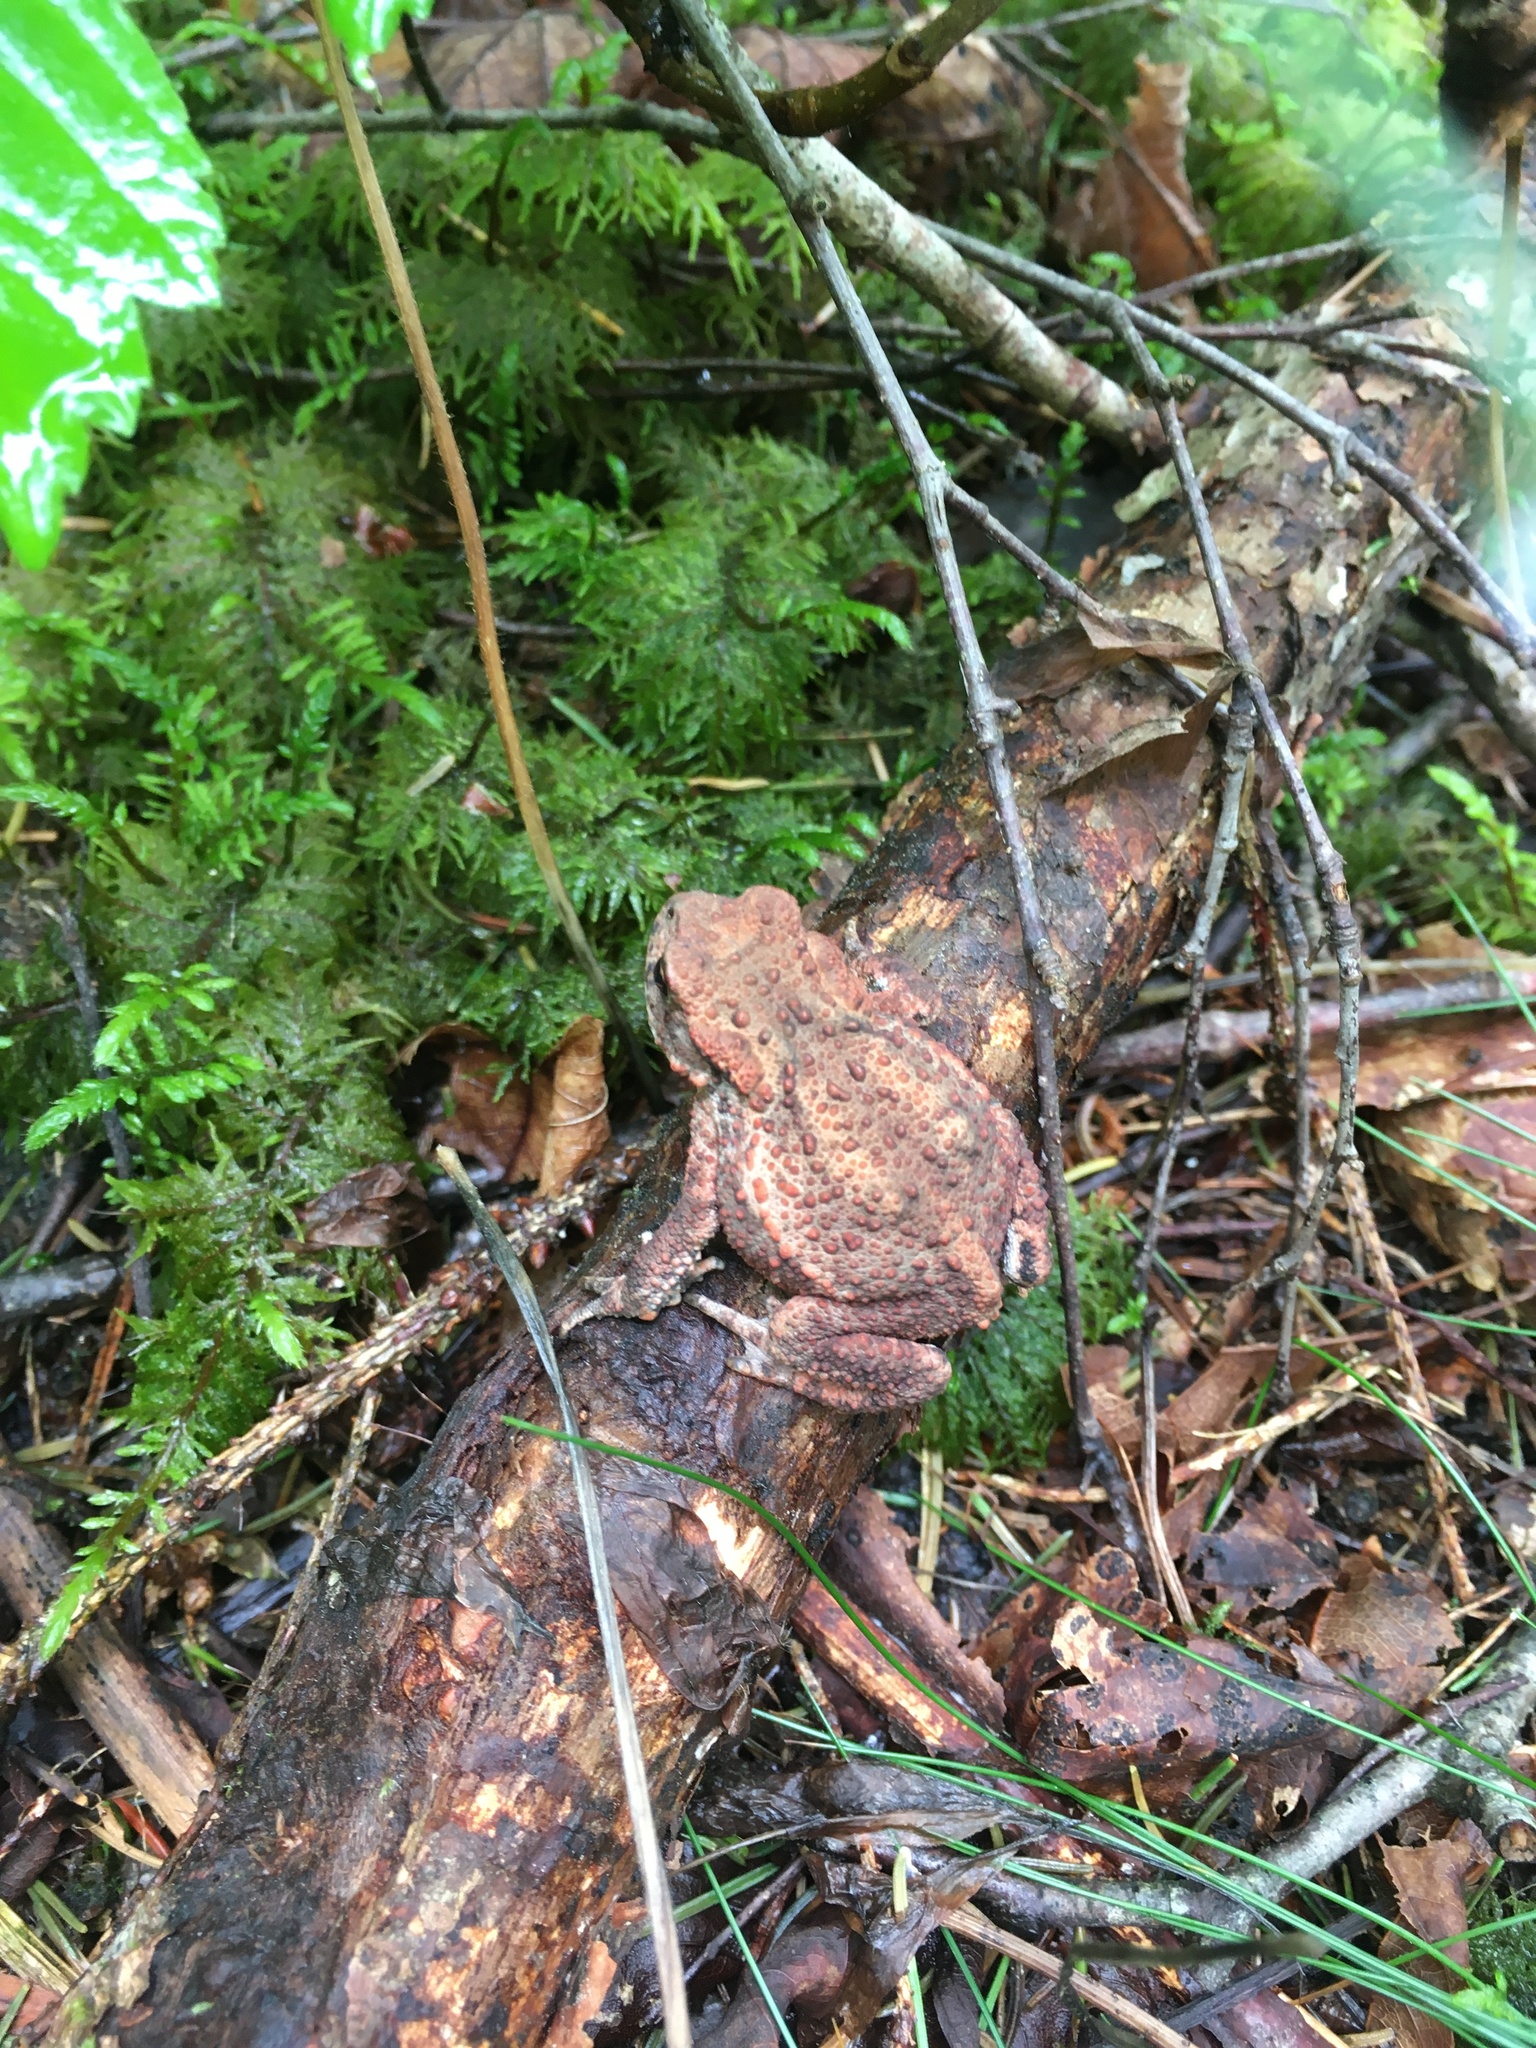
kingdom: Animalia
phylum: Chordata
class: Amphibia
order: Anura
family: Bufonidae
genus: Bufo
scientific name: Bufo bufo
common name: Common toad
